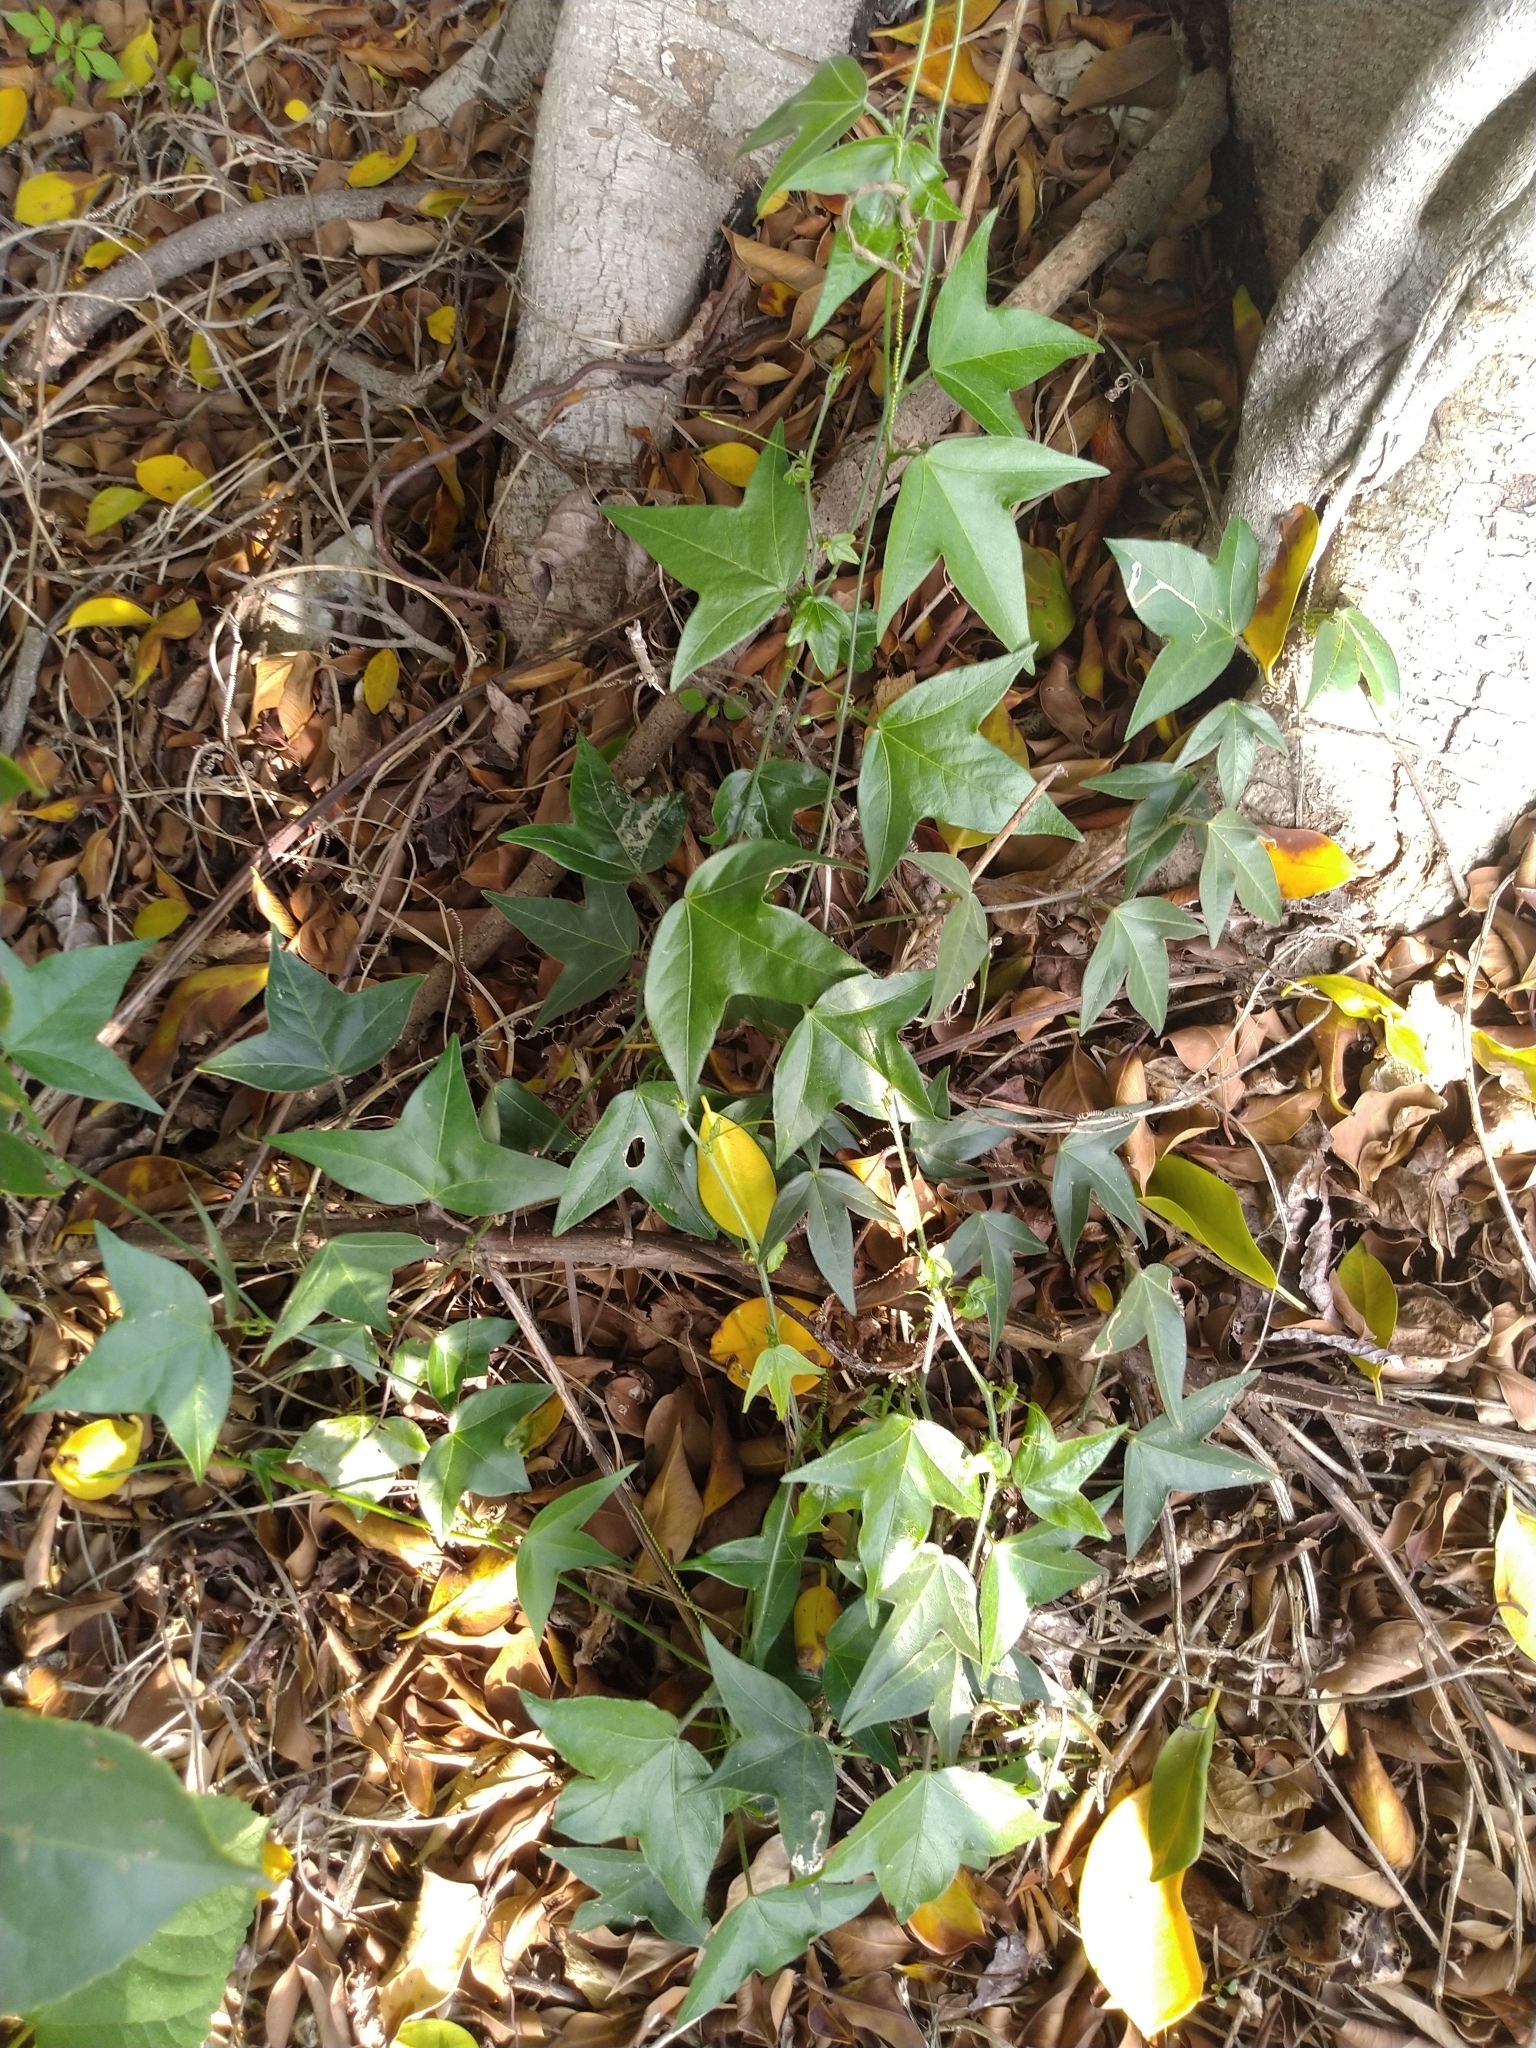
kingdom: Plantae
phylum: Tracheophyta
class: Magnoliopsida
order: Malpighiales
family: Passifloraceae
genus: Passiflora
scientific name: Passiflora suberosa
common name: Wild passionfruit
